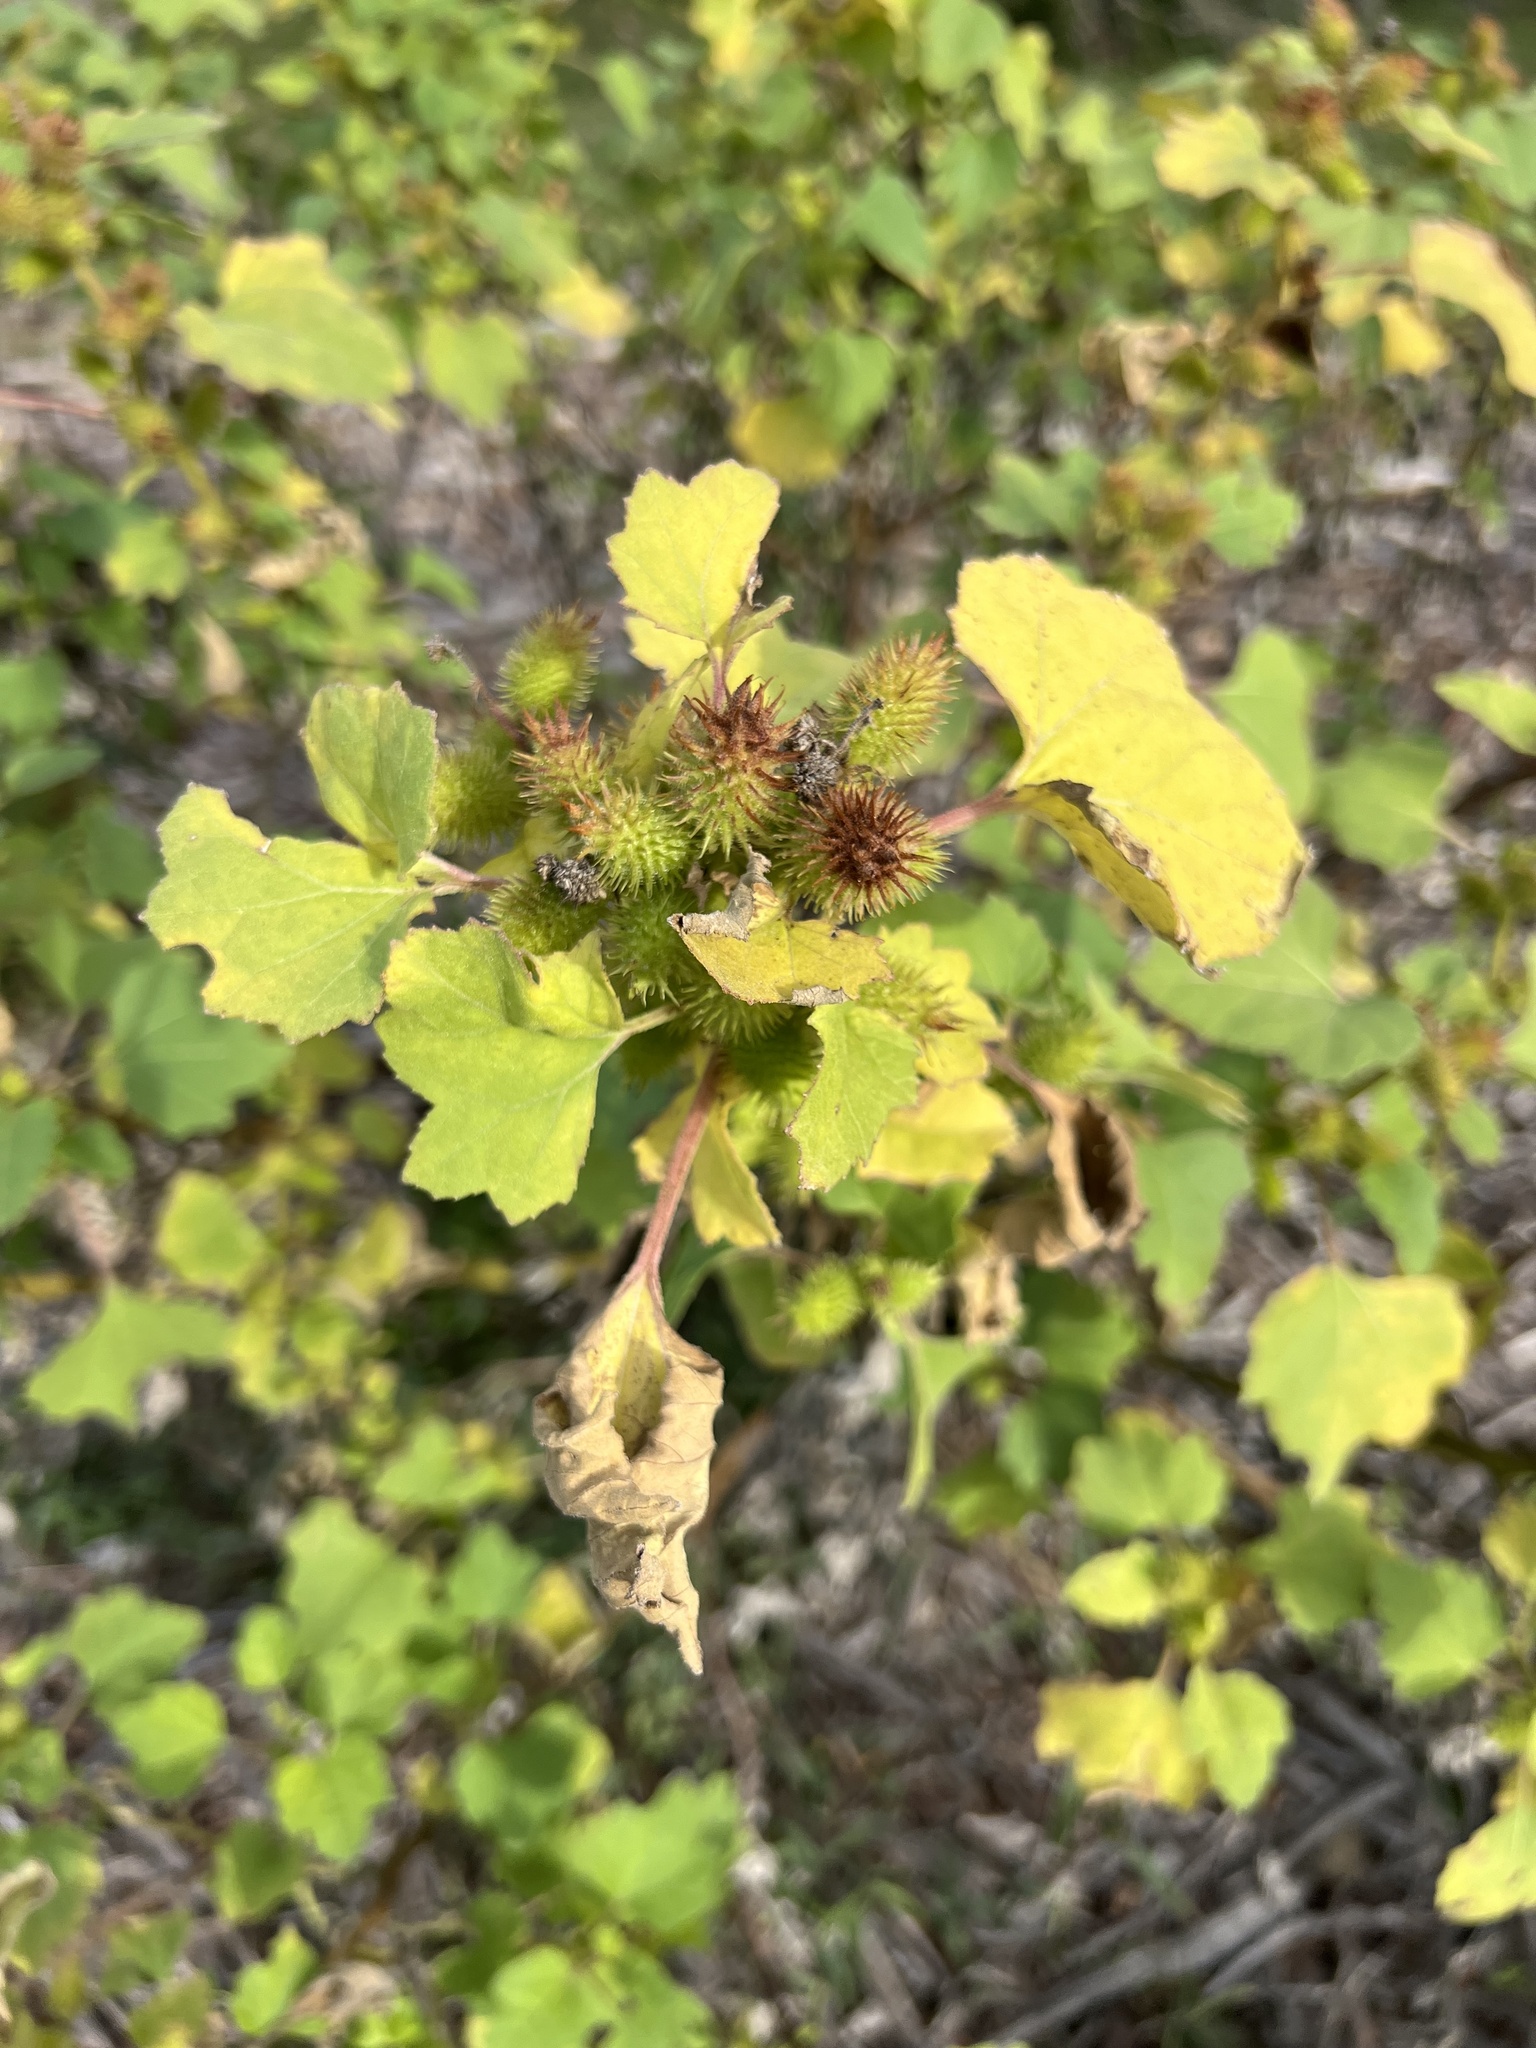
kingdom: Plantae
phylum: Tracheophyta
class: Magnoliopsida
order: Asterales
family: Asteraceae
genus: Xanthium
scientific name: Xanthium strumarium
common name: Rough cocklebur
